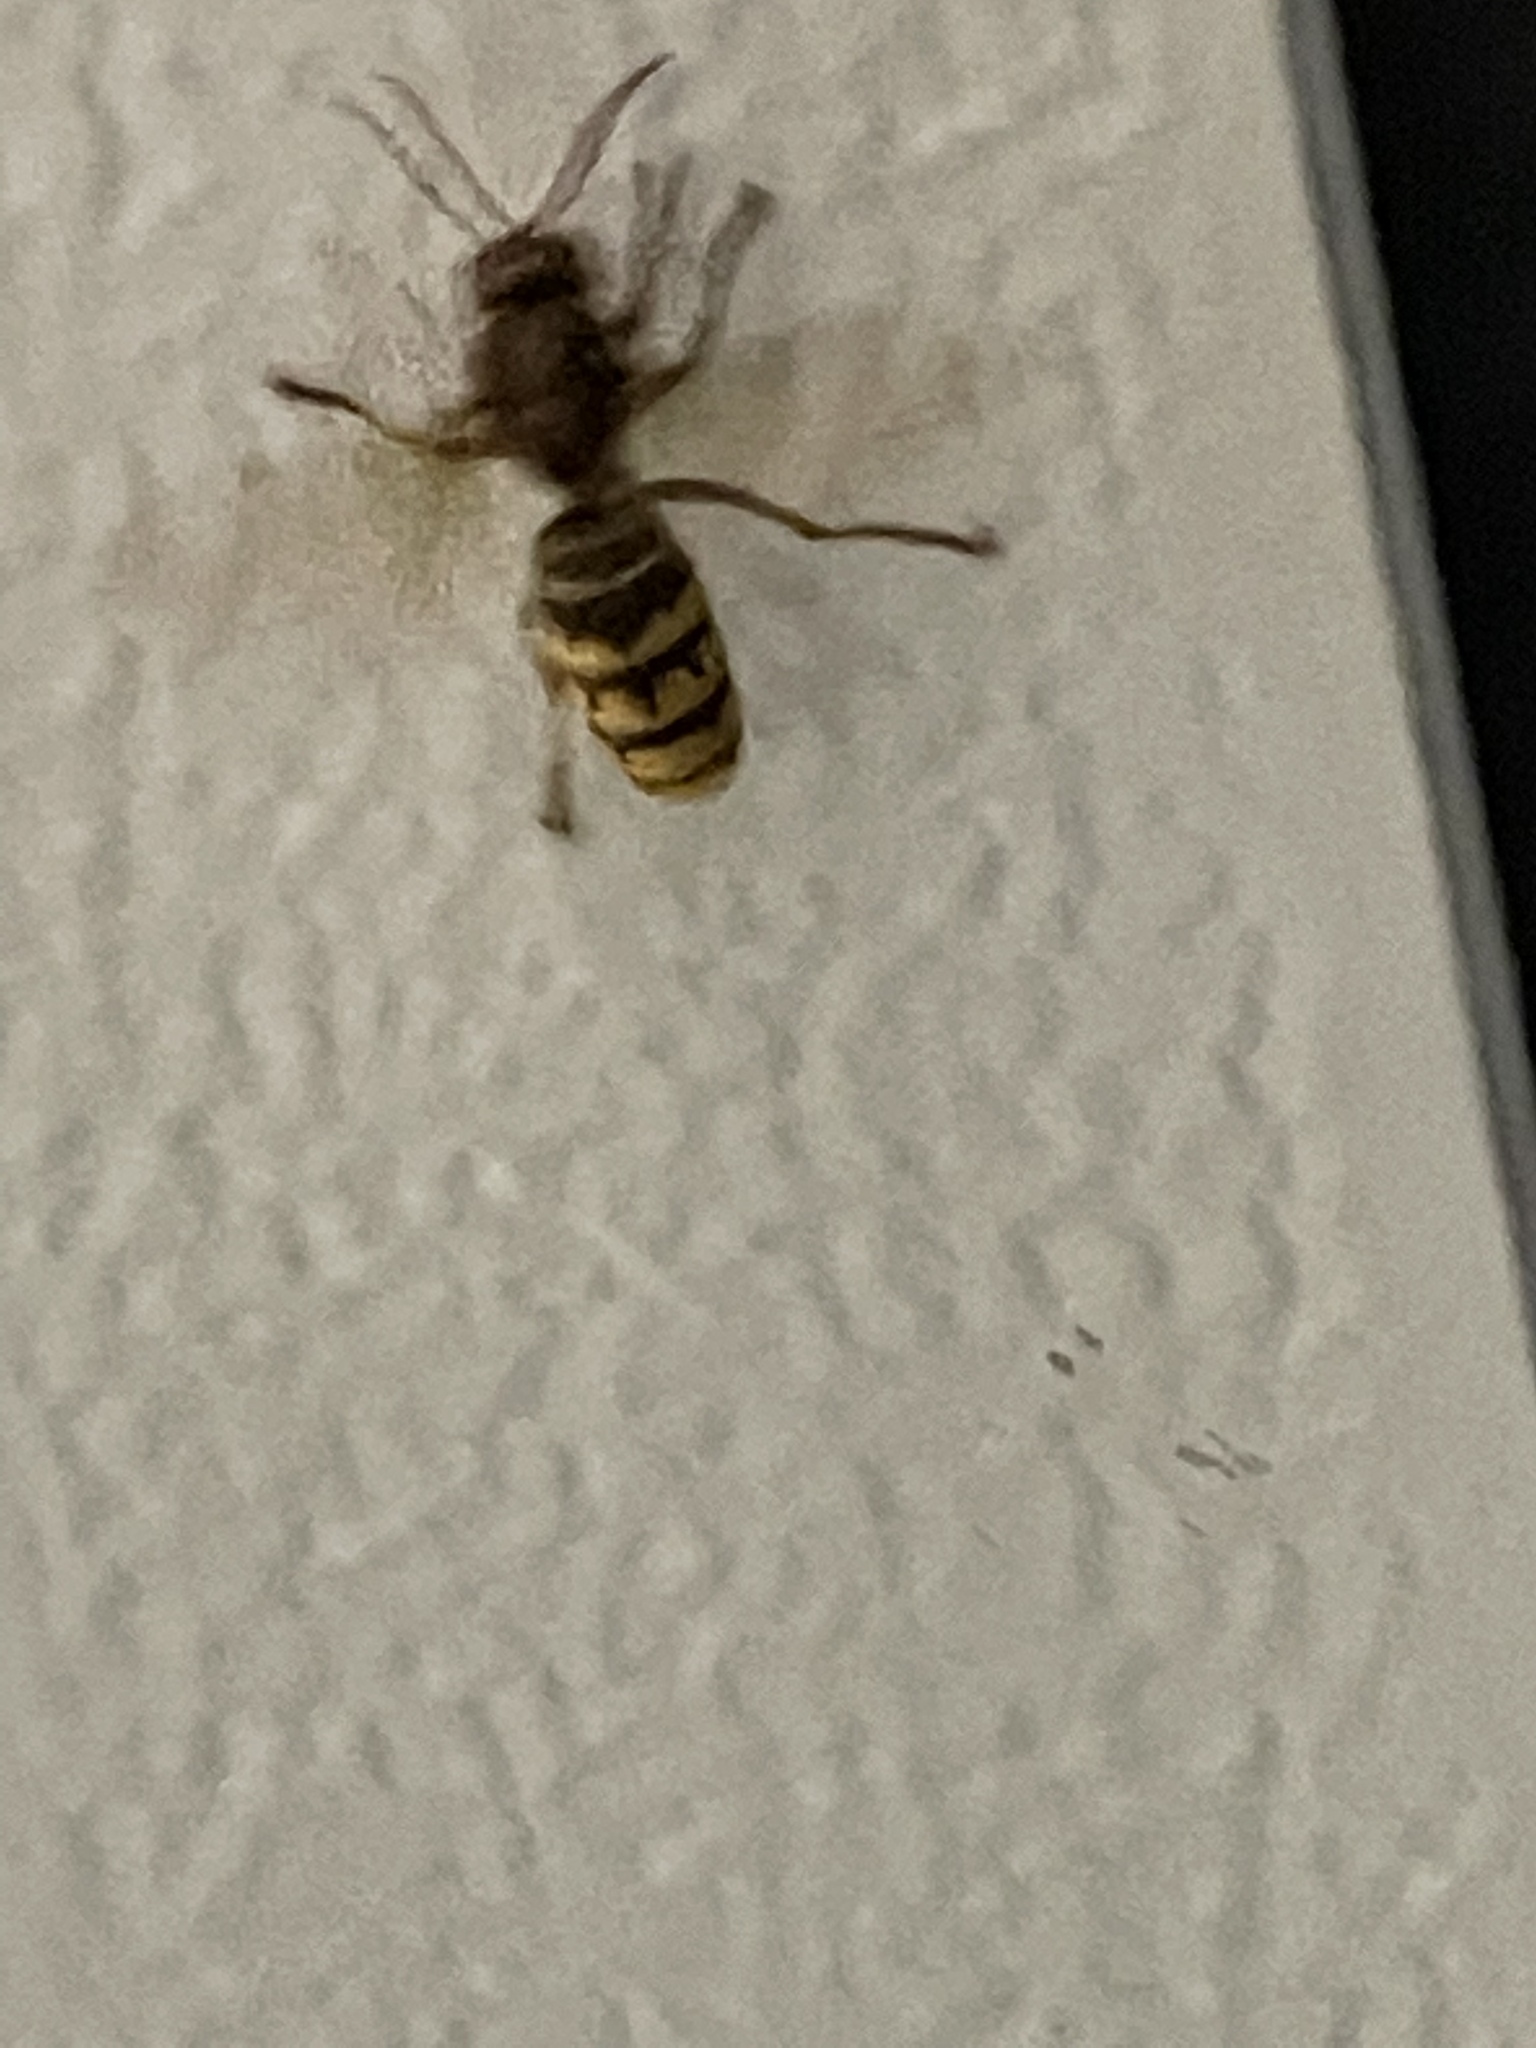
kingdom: Animalia
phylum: Arthropoda
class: Insecta
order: Hymenoptera
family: Vespidae
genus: Vespa
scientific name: Vespa crabro
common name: Hornet
